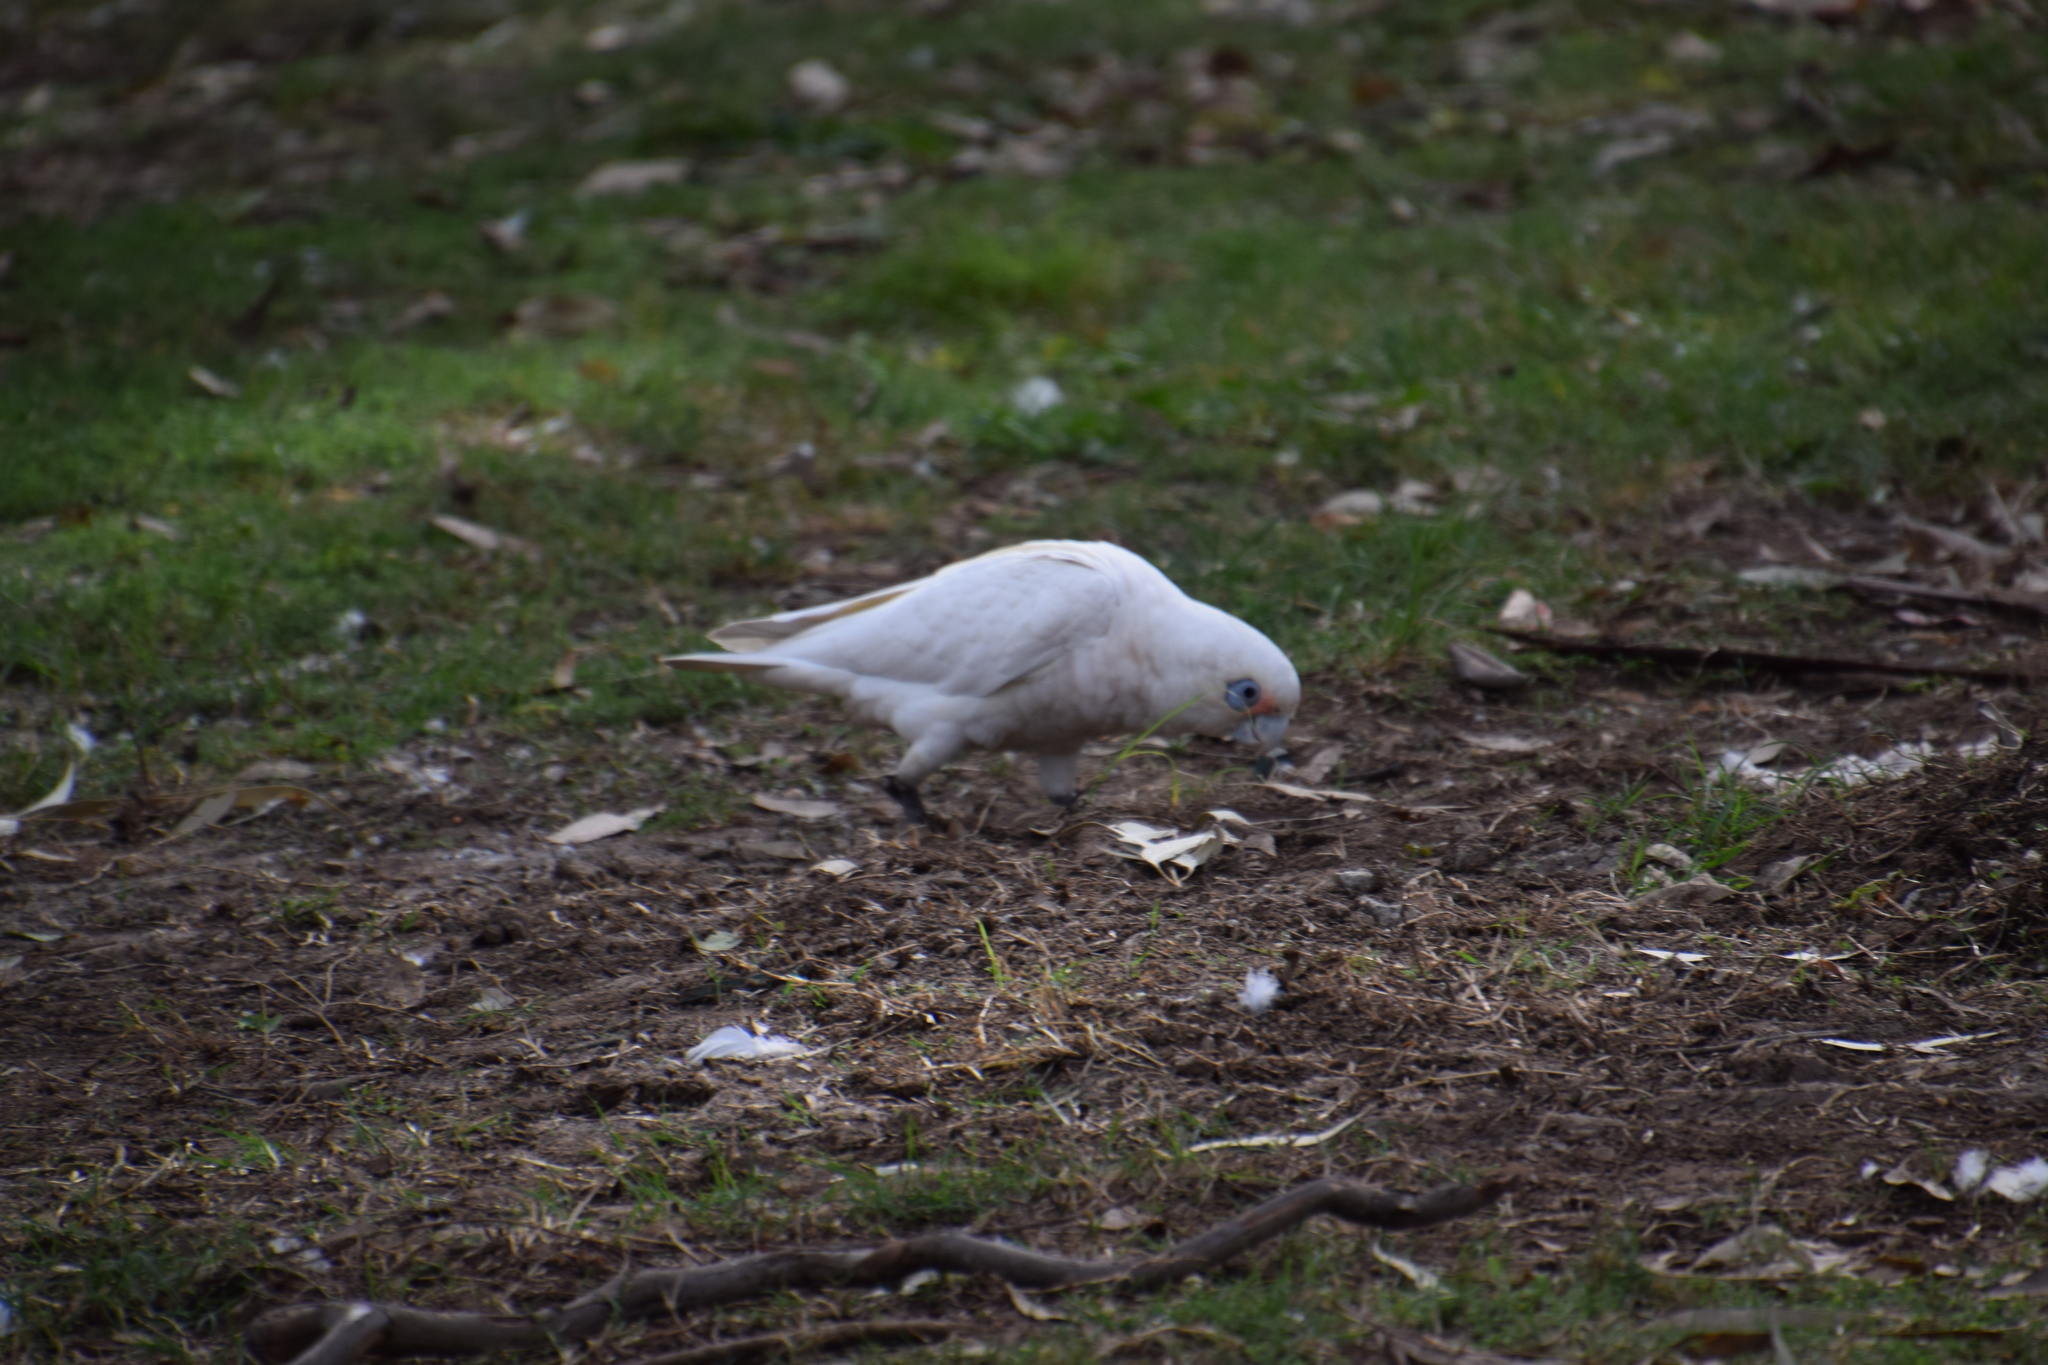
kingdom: Animalia
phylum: Chordata
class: Aves
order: Psittaciformes
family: Psittacidae
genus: Cacatua
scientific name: Cacatua sanguinea
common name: Little corella
